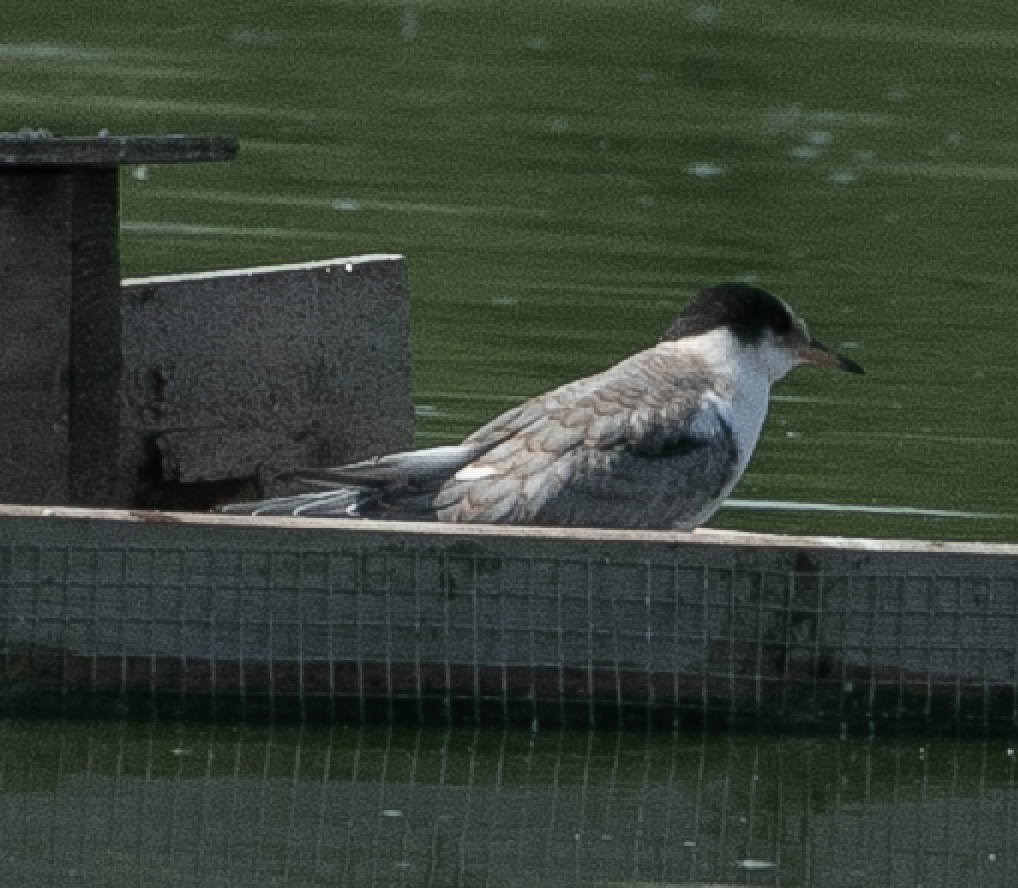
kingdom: Animalia
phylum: Chordata
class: Aves
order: Charadriiformes
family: Laridae
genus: Sterna
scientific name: Sterna hirundo
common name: Common tern
